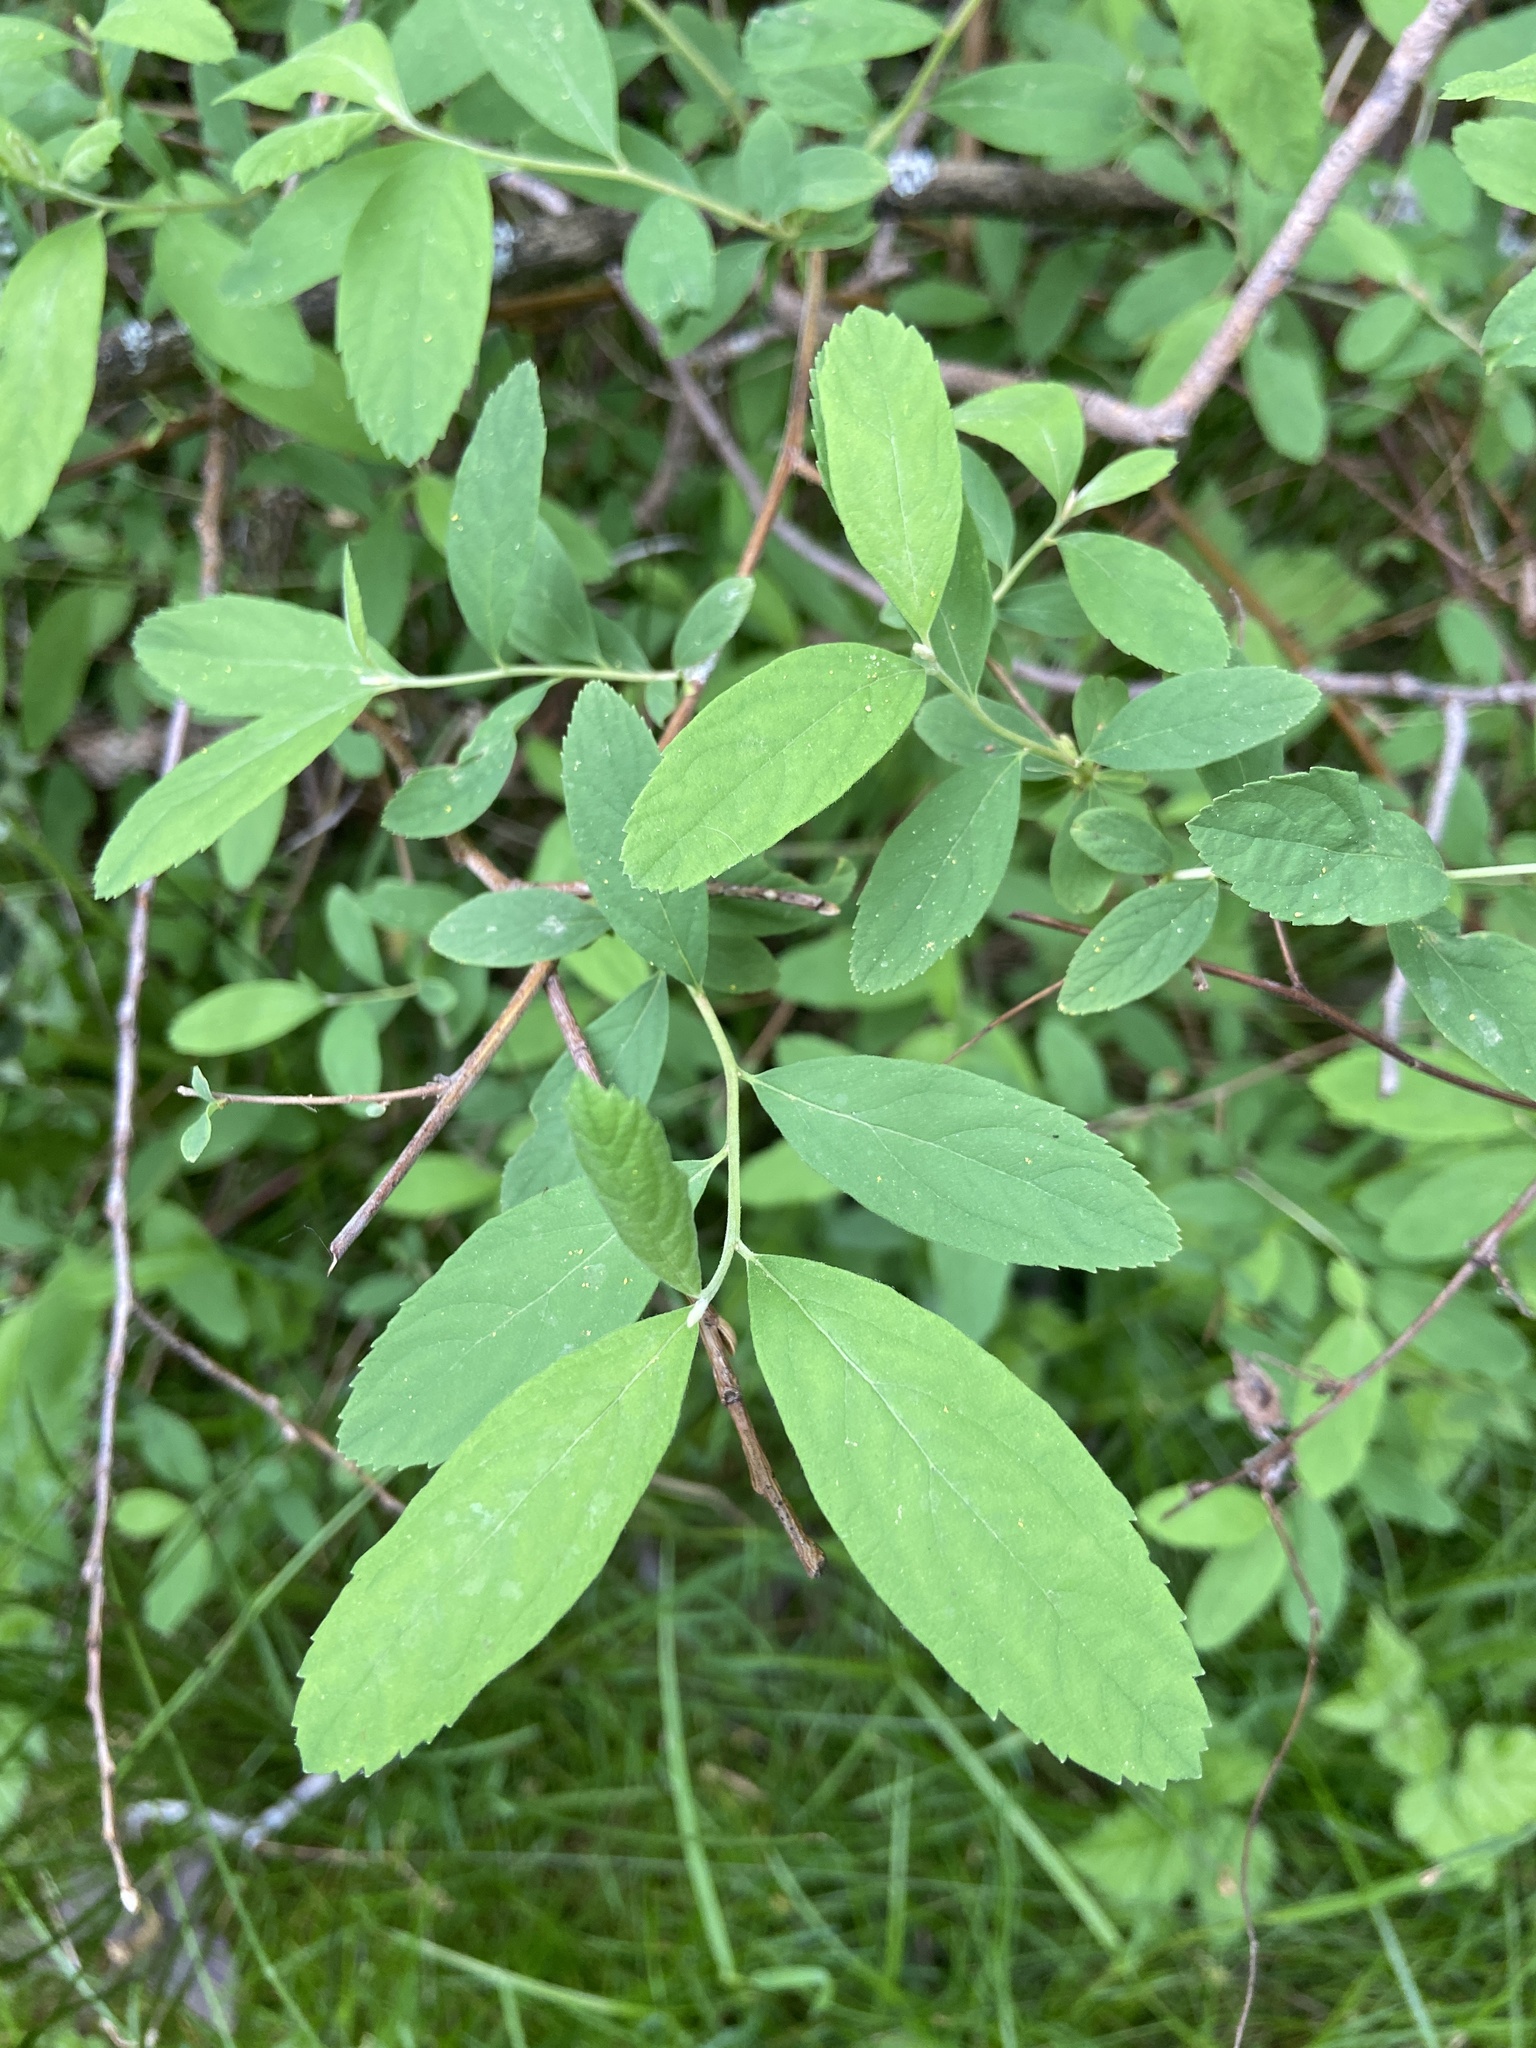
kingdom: Plantae
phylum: Tracheophyta
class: Magnoliopsida
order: Rosales
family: Rosaceae
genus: Spiraea
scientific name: Spiraea douglasii
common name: Steeplebush
